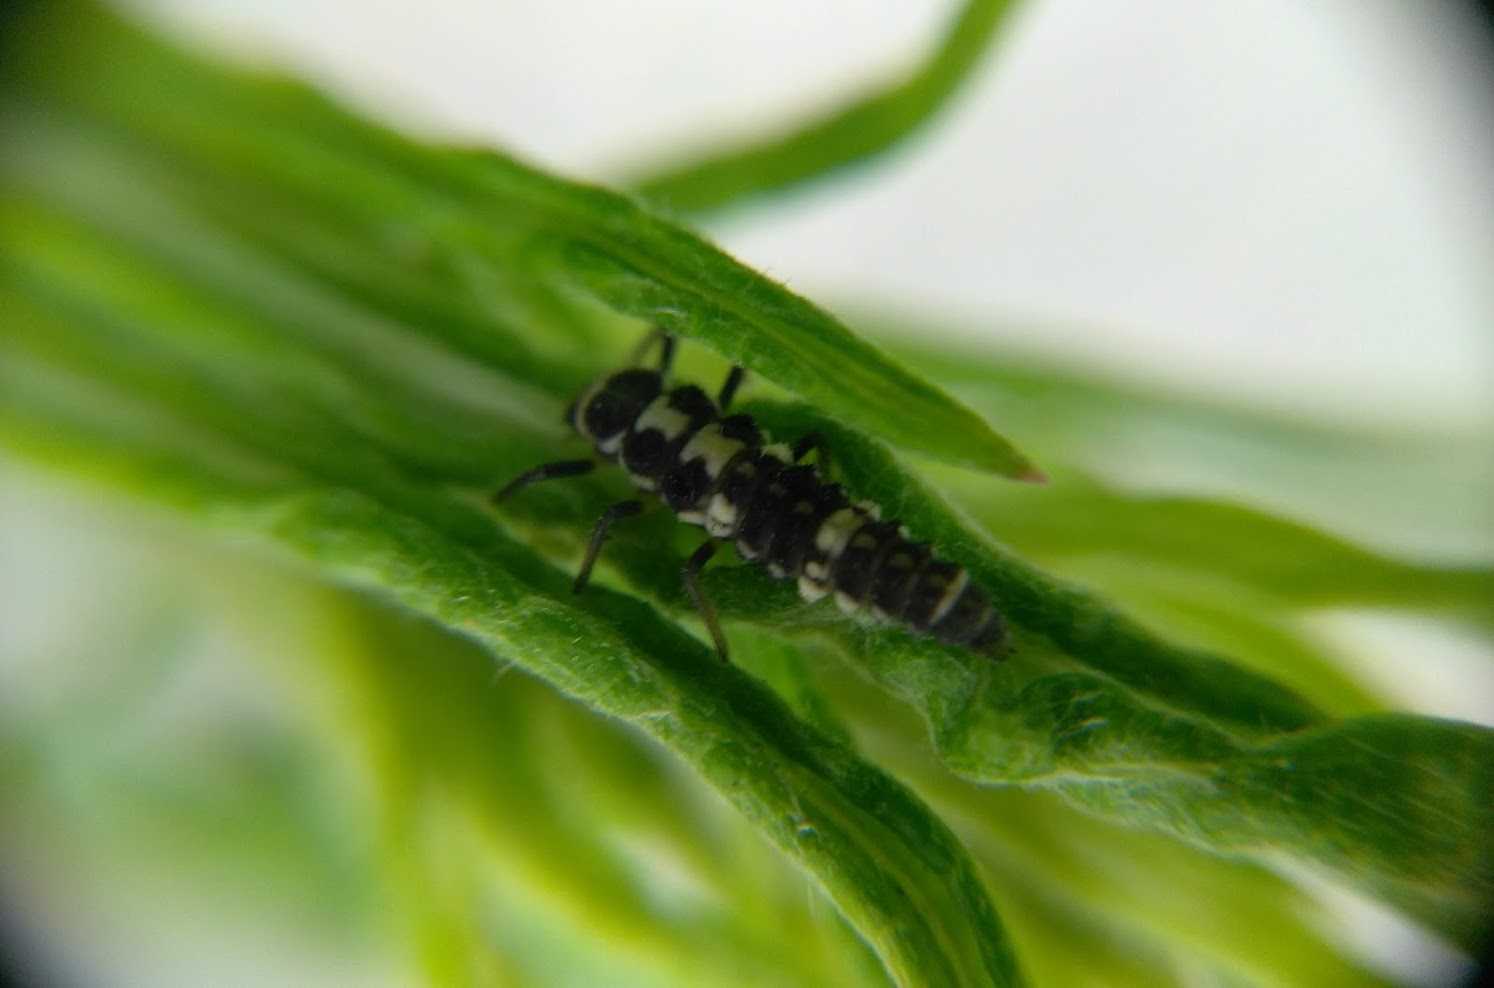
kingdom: Animalia
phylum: Arthropoda
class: Insecta
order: Coleoptera
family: Coccinellidae
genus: Propylaea
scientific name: Propylaea quatuordecimpunctata
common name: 14-spotted ladybird beetle
